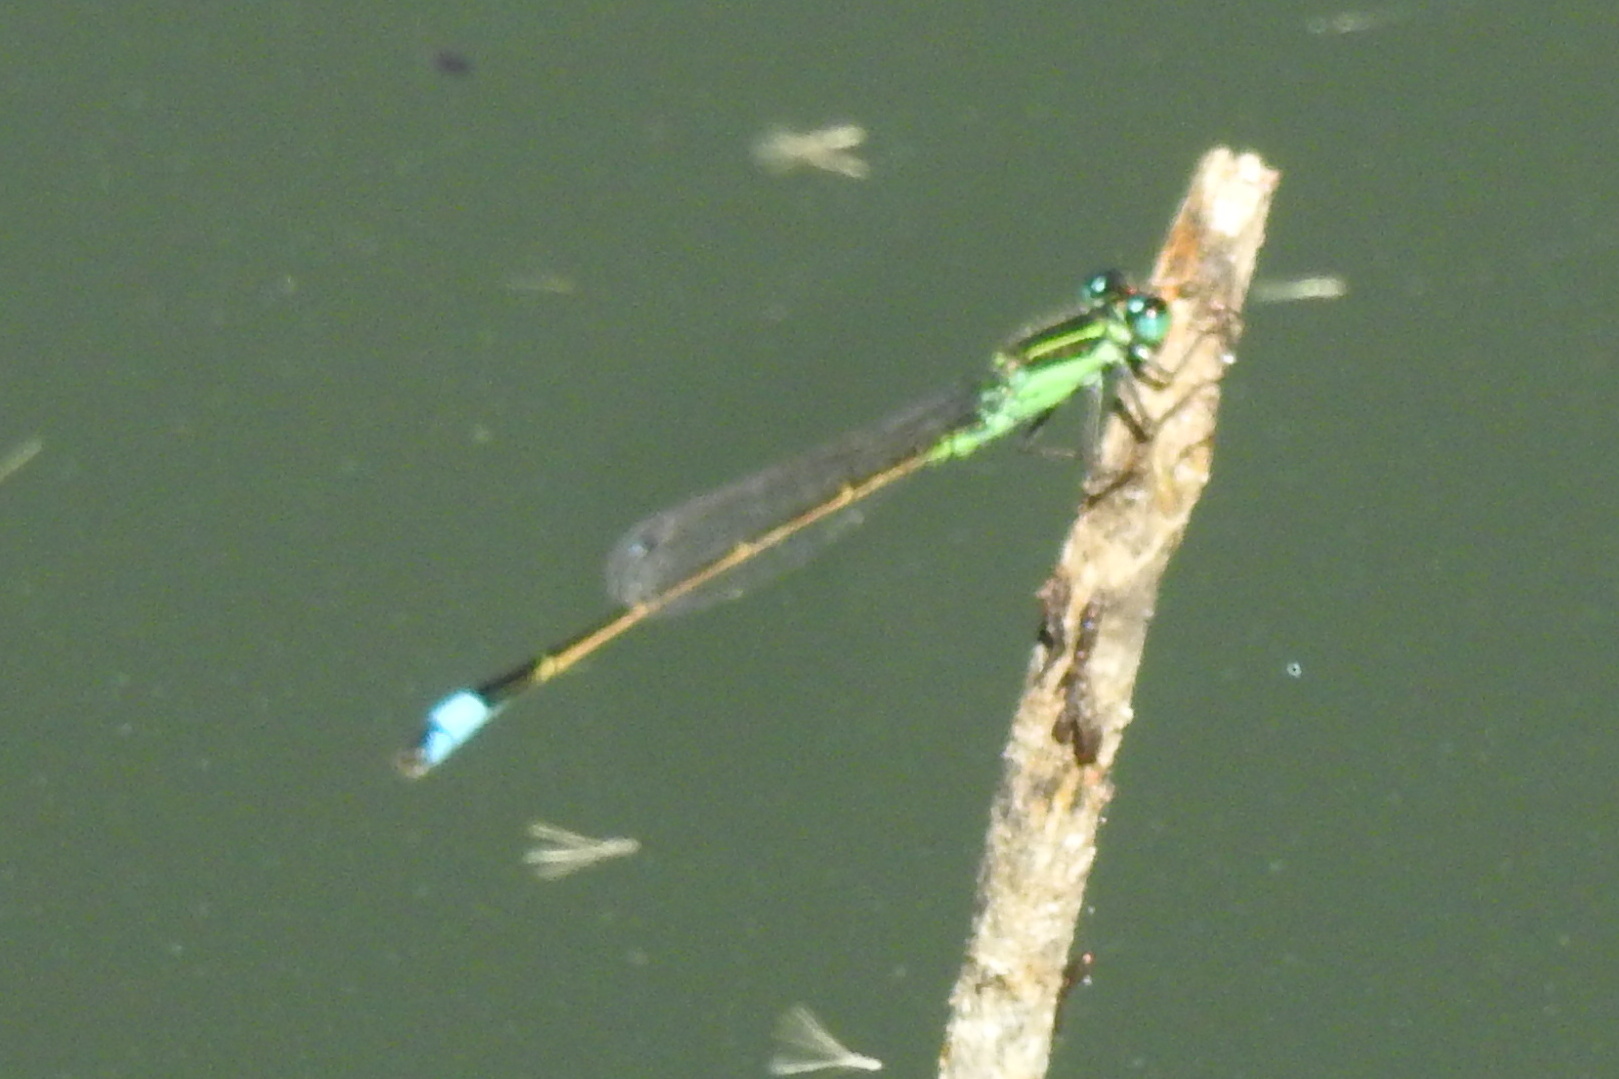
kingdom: Animalia
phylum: Arthropoda
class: Insecta
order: Odonata
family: Coenagrionidae
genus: Ischnura
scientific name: Ischnura ramburii
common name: Rambur's forktail
